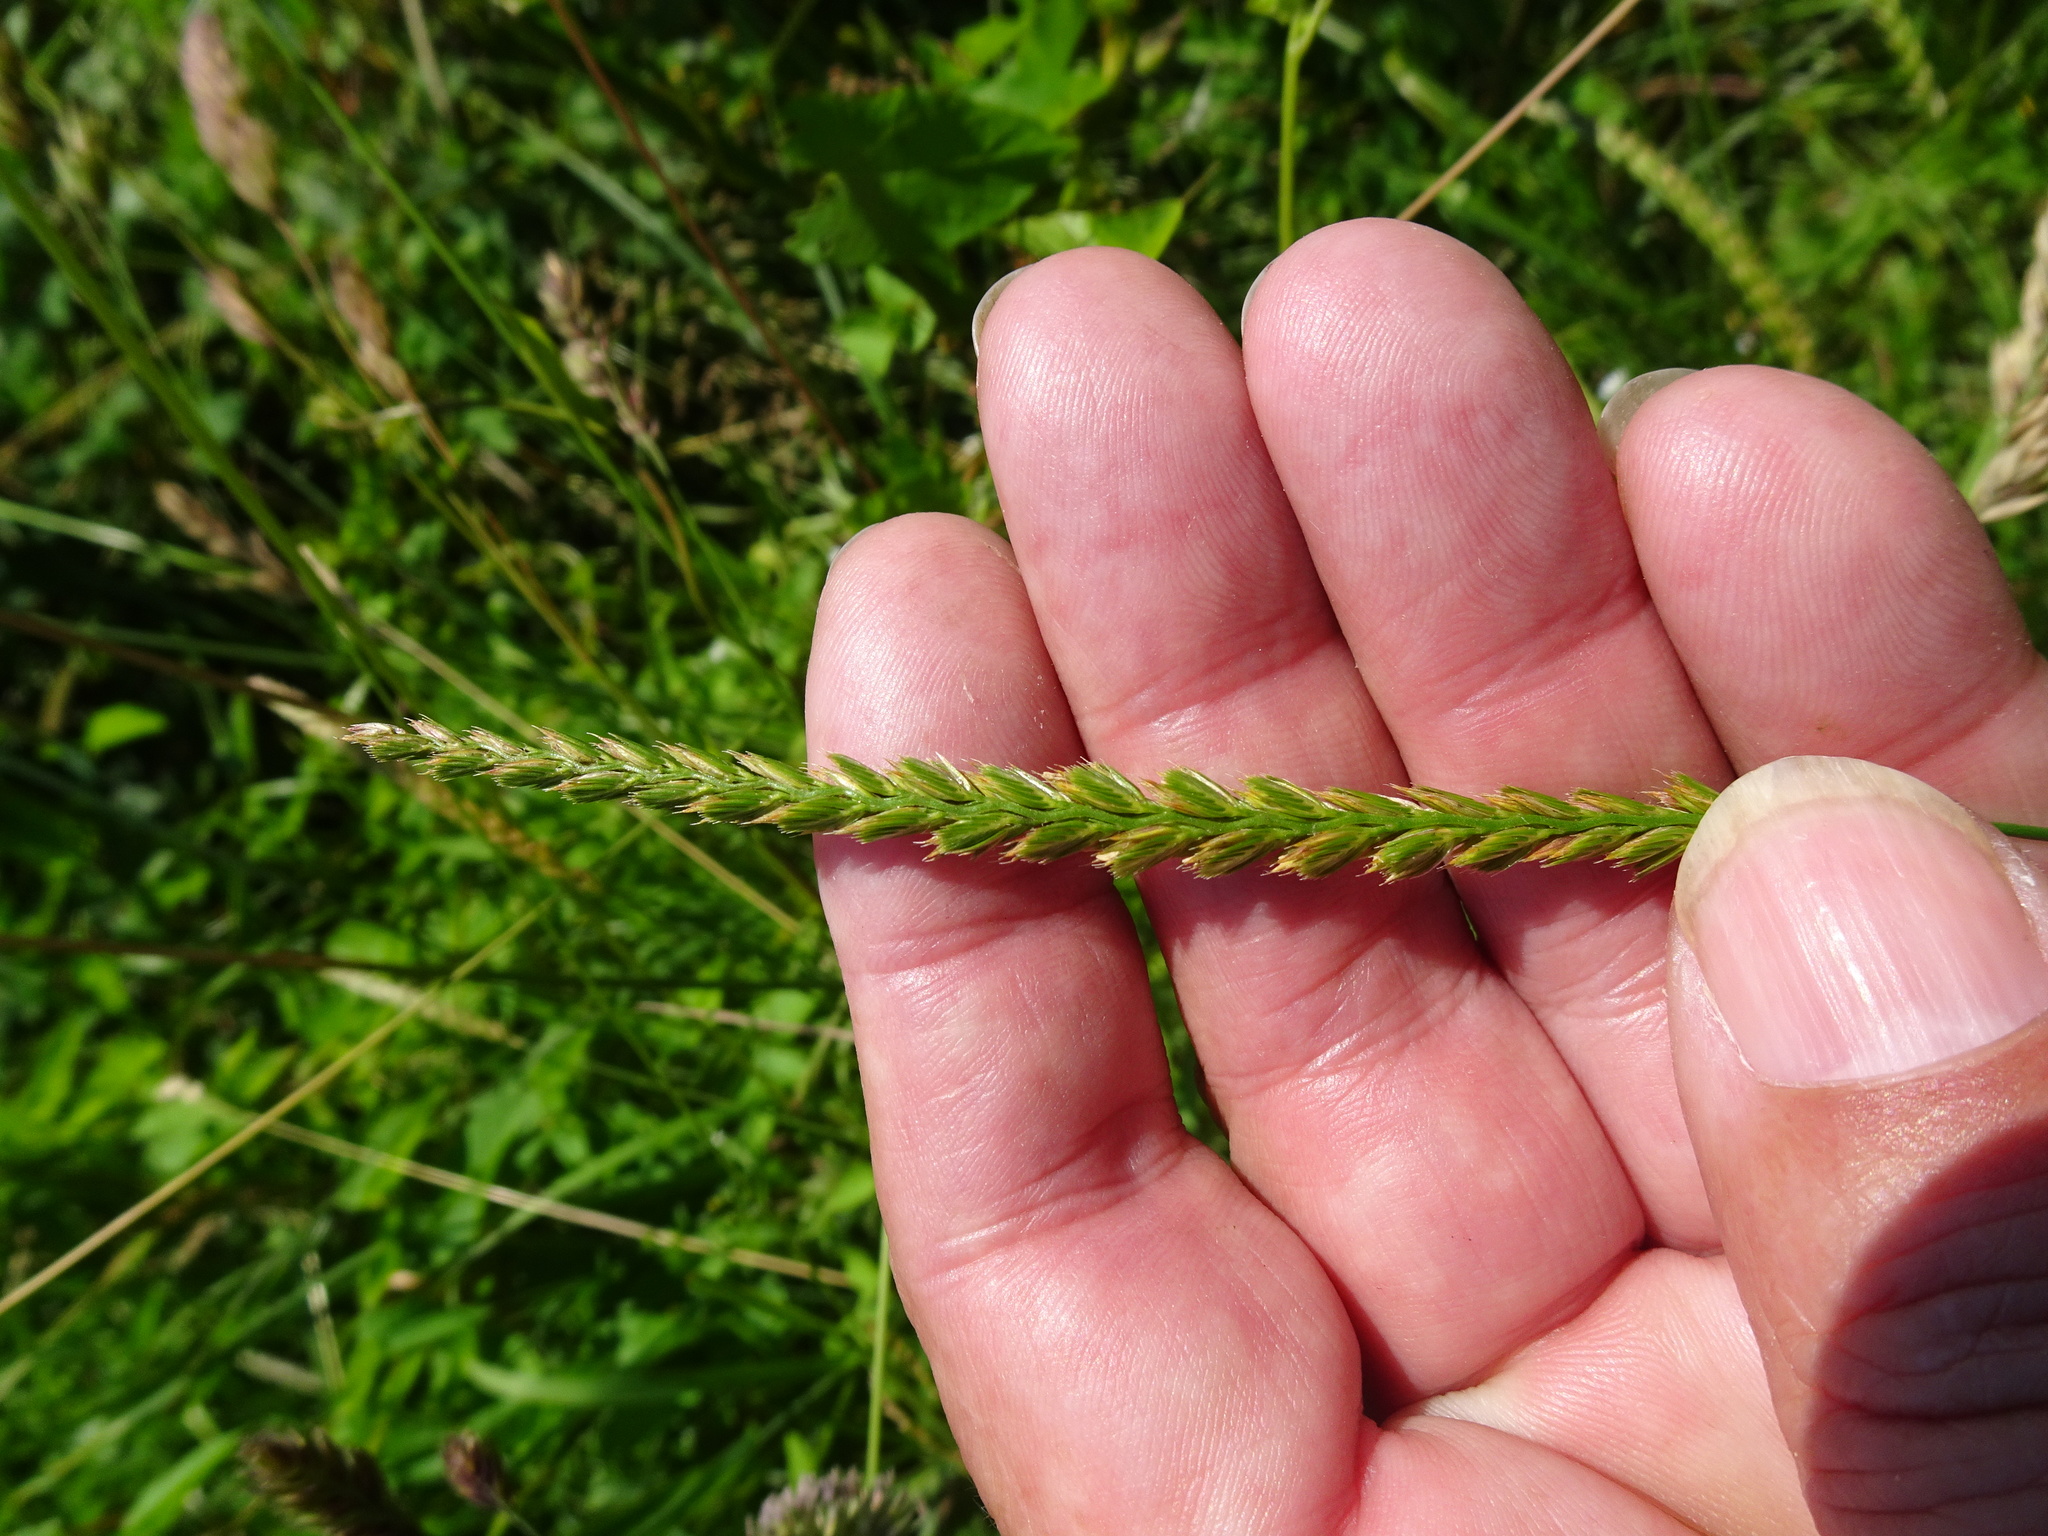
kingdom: Plantae
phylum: Tracheophyta
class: Liliopsida
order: Poales
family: Poaceae
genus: Cynosurus
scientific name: Cynosurus cristatus
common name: Crested dog's-tail
